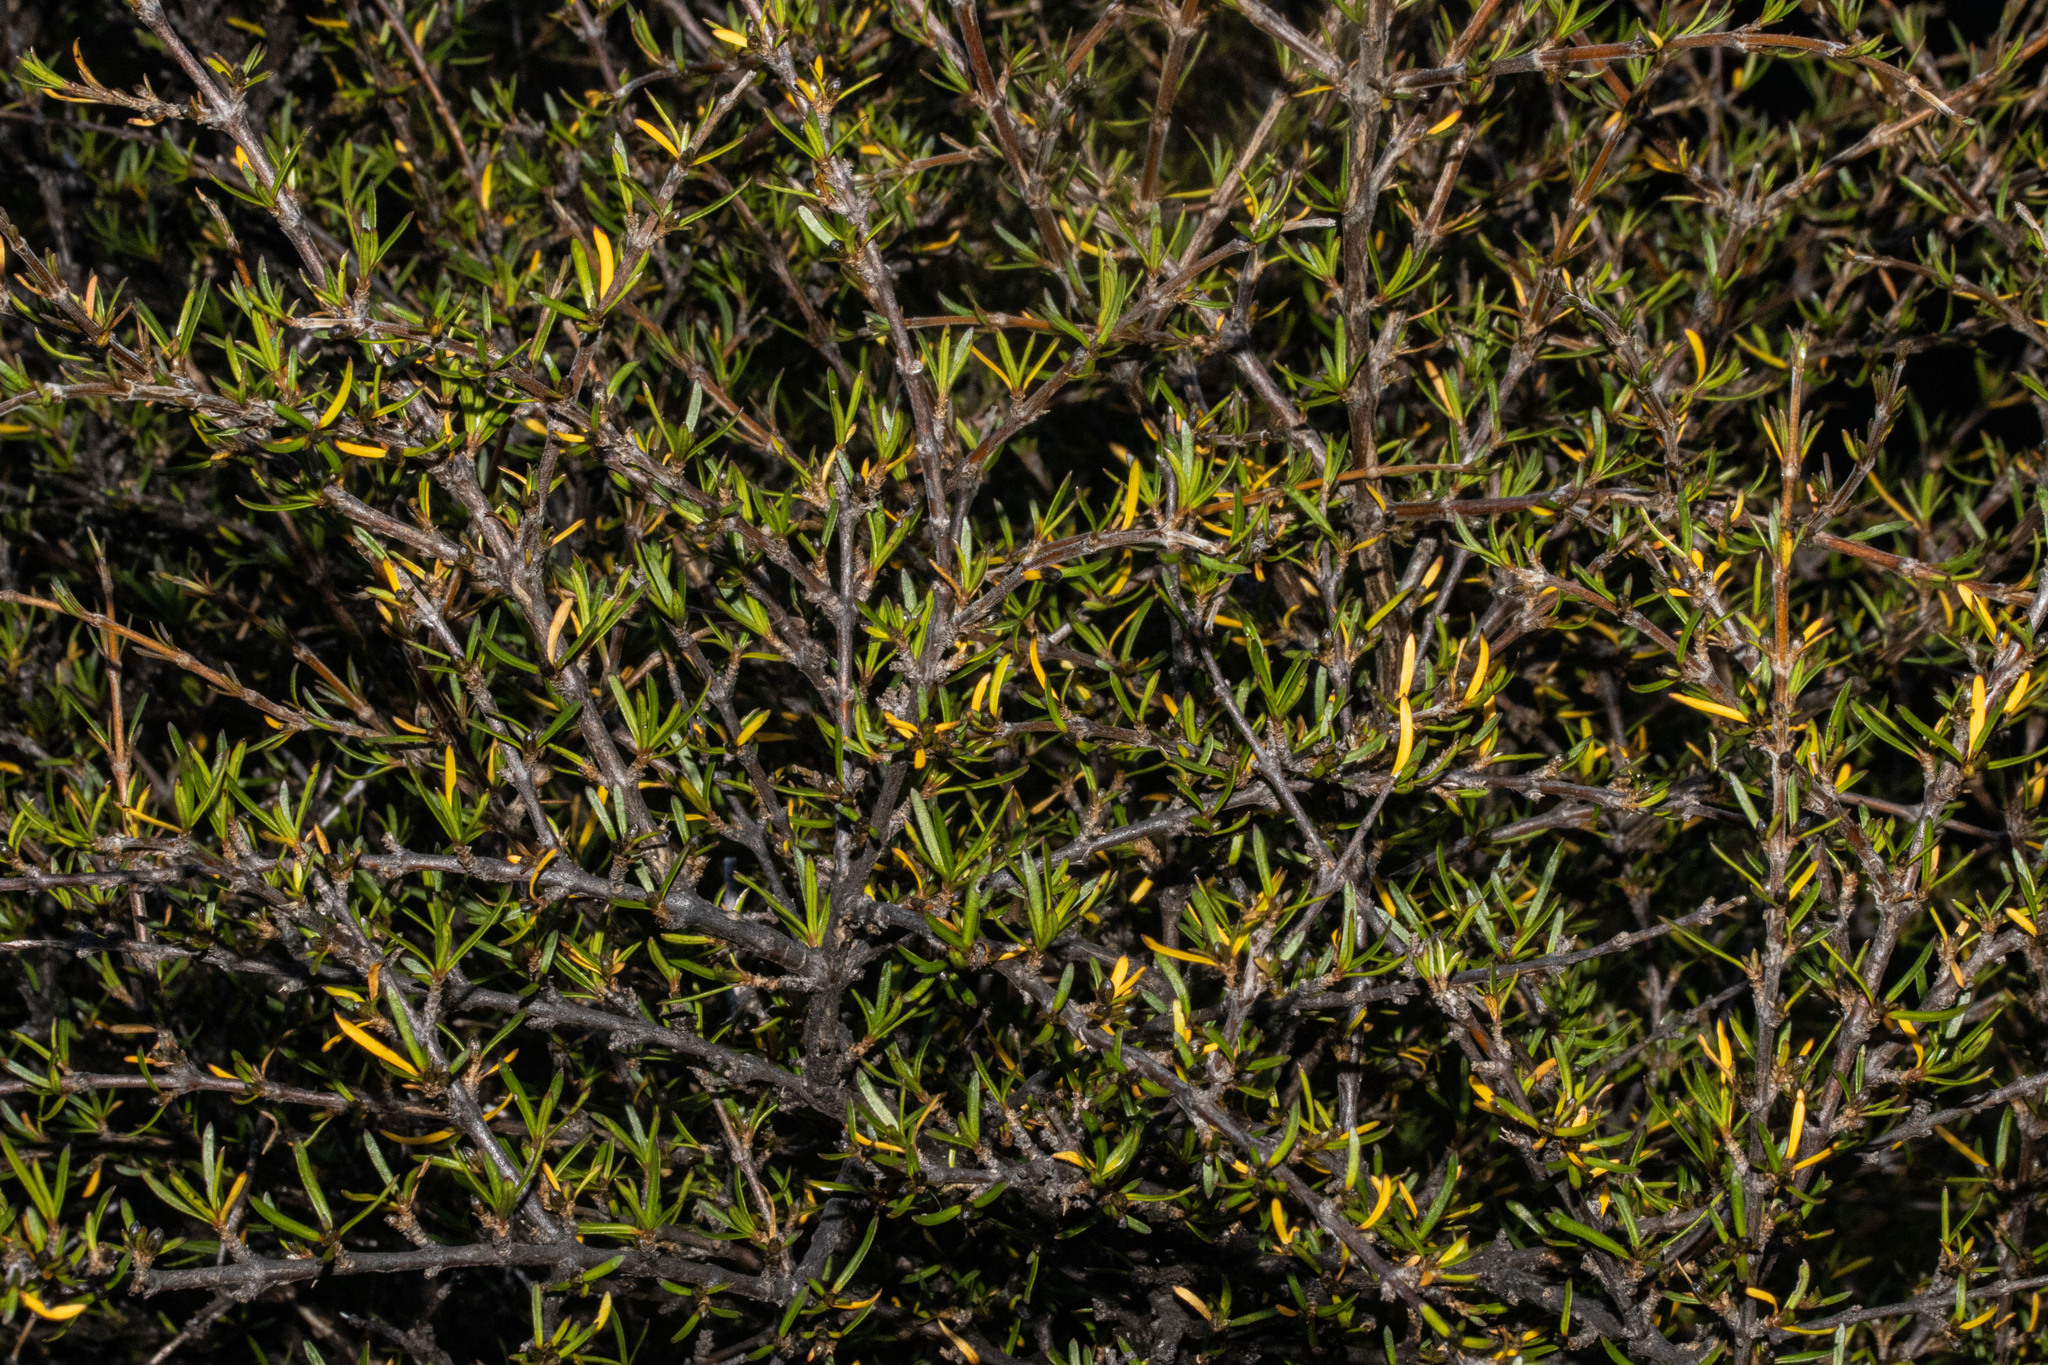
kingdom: Plantae
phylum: Tracheophyta
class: Magnoliopsida
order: Gentianales
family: Rubiaceae
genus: Coprosma
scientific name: Coprosma intertexta
